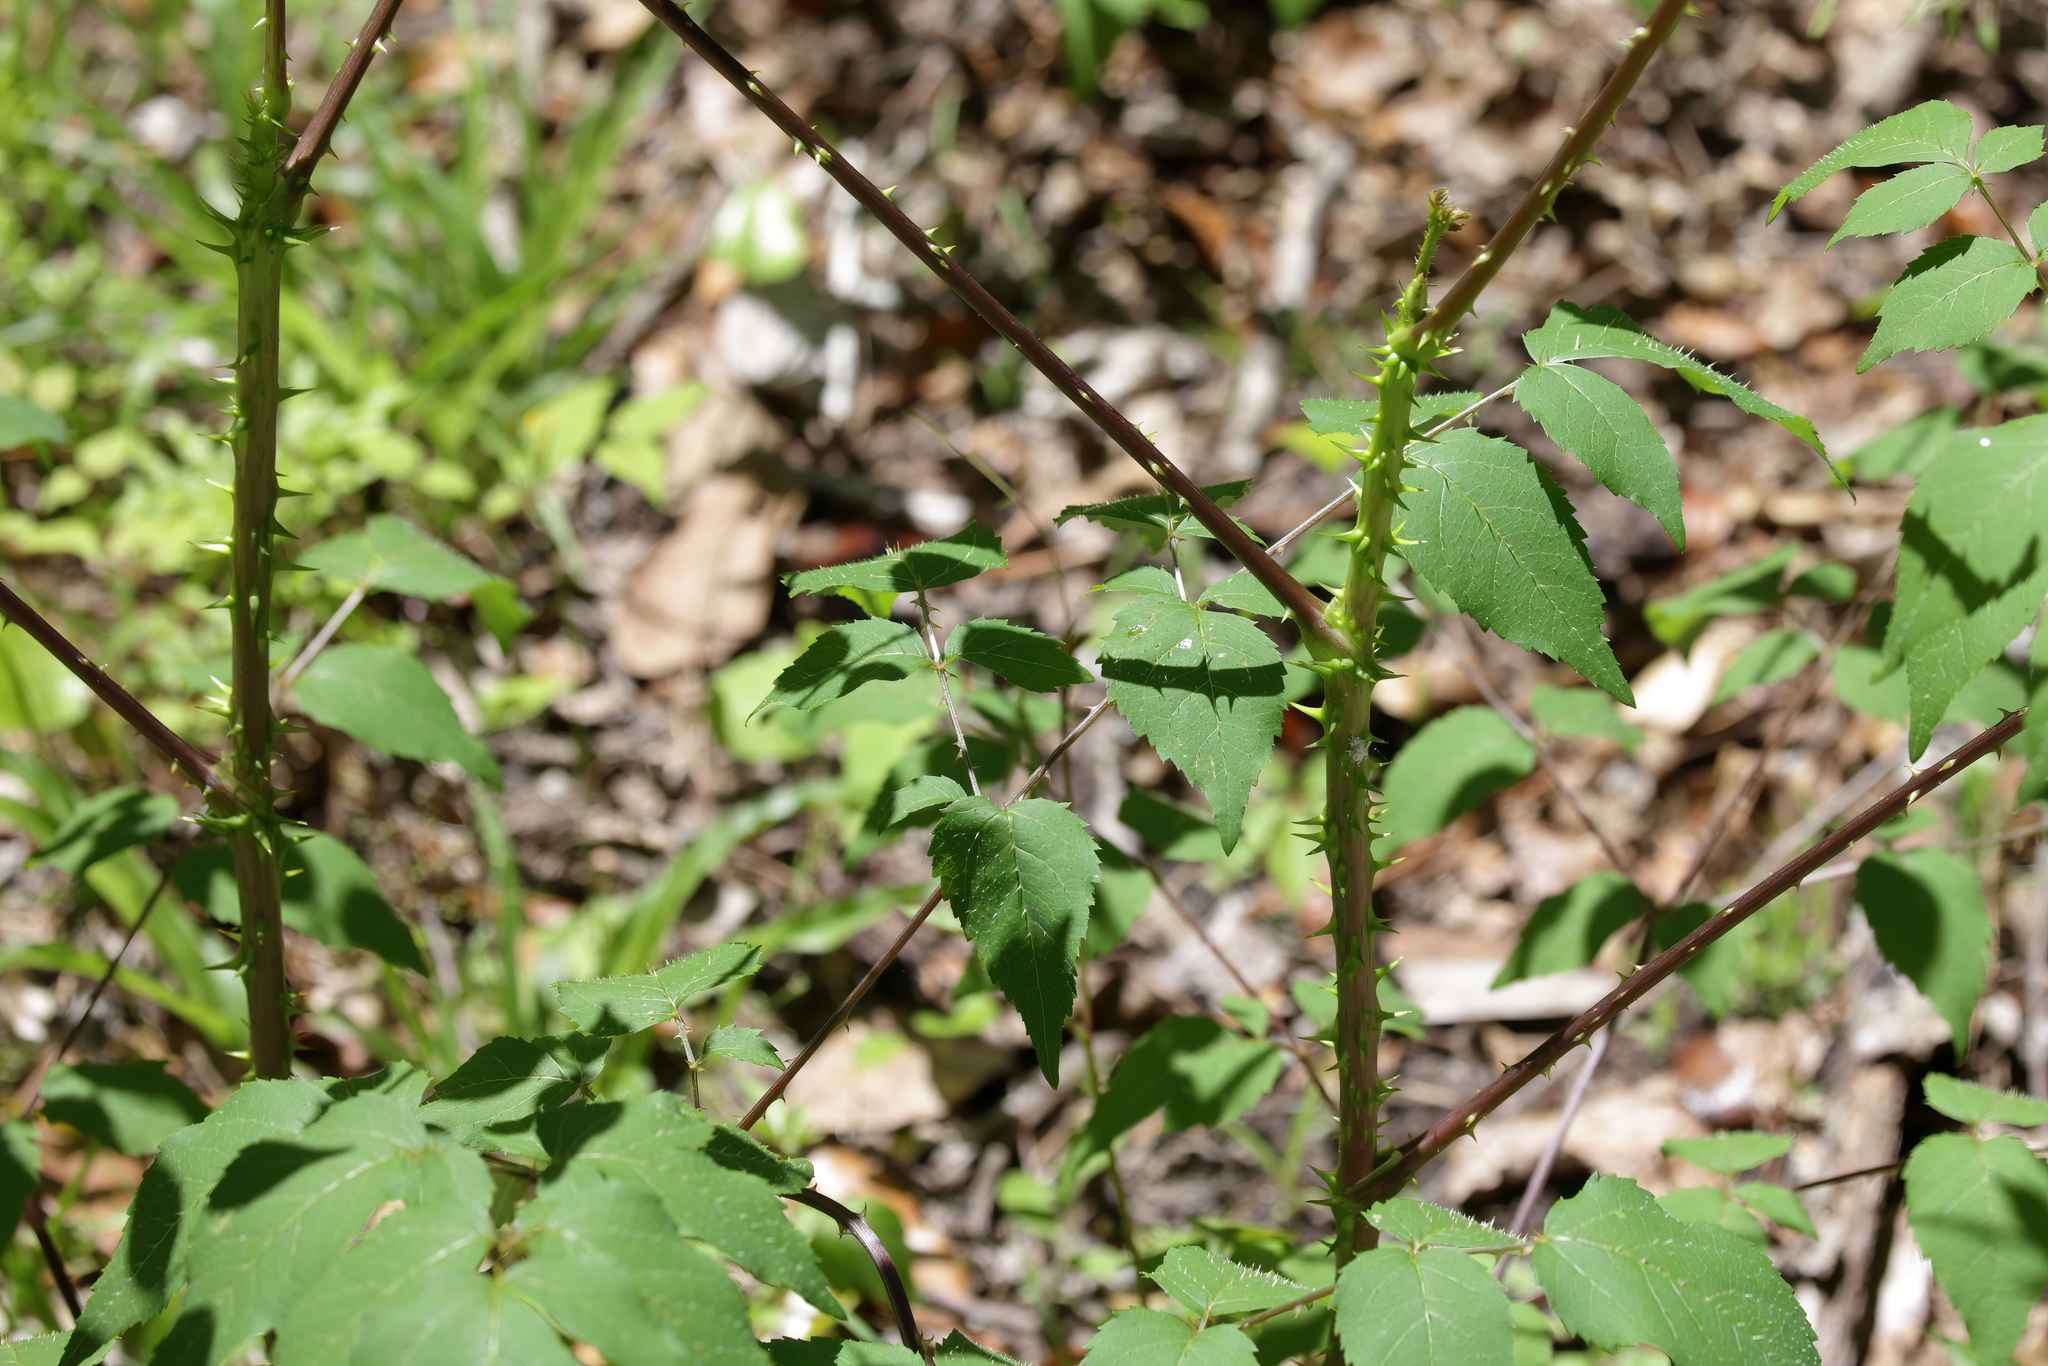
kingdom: Plantae
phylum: Tracheophyta
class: Magnoliopsida
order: Apiales
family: Araliaceae
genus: Aralia
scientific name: Aralia spinosa
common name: Hercules'-club
